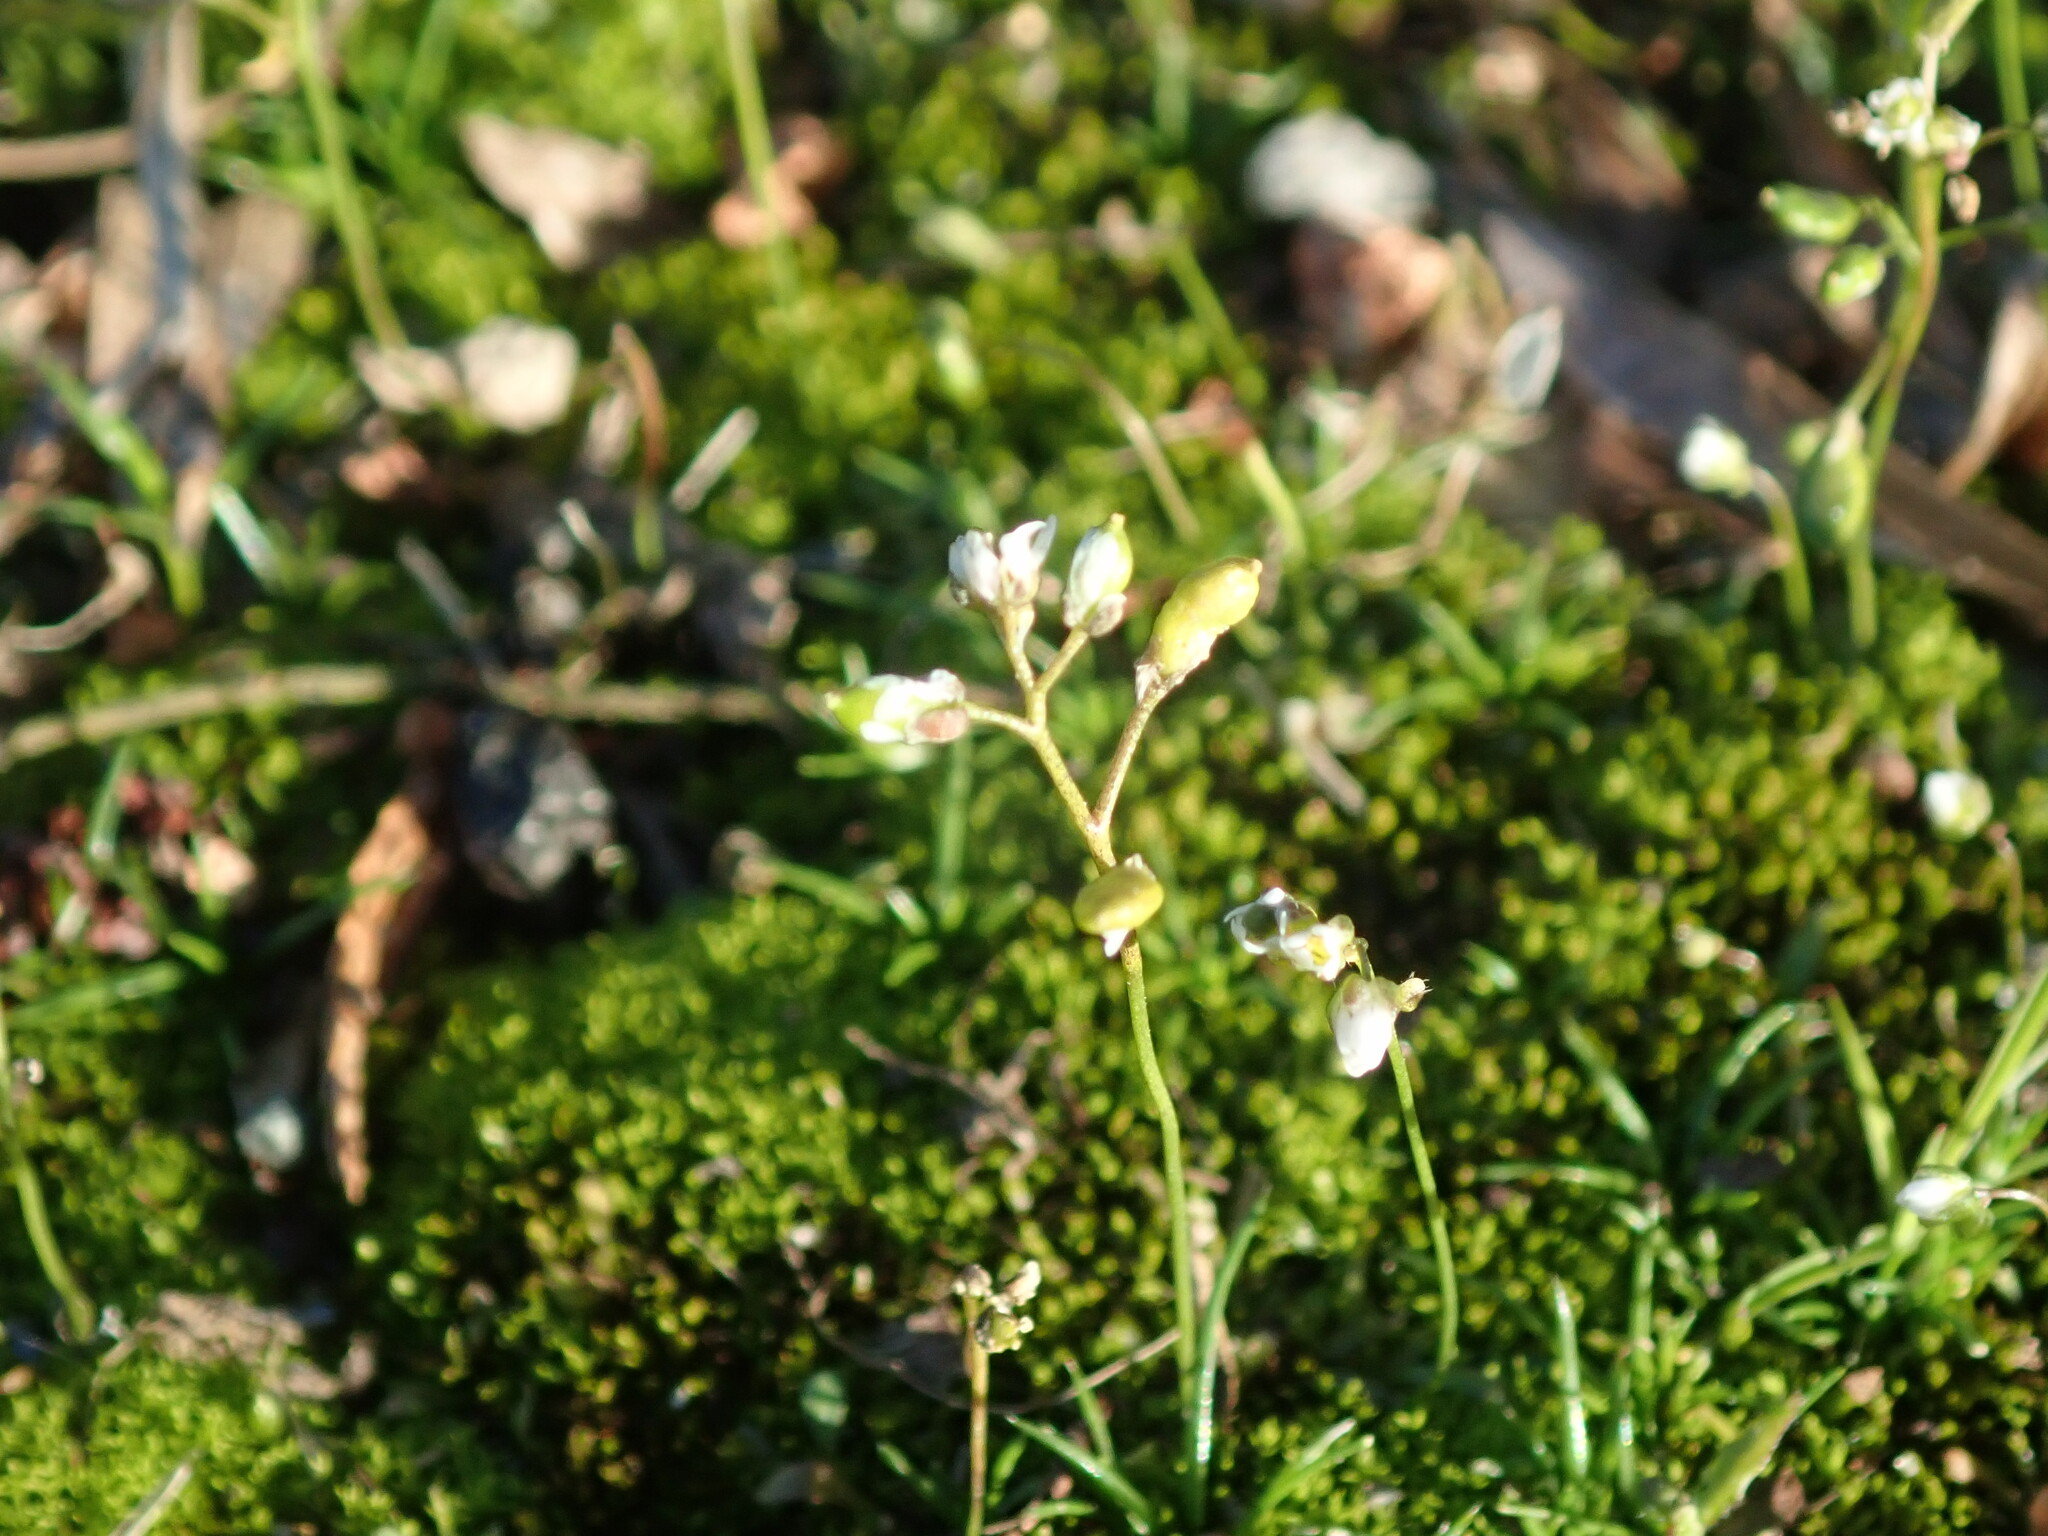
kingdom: Plantae
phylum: Tracheophyta
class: Magnoliopsida
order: Brassicales
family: Brassicaceae
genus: Draba
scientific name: Draba verna
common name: Spring draba
